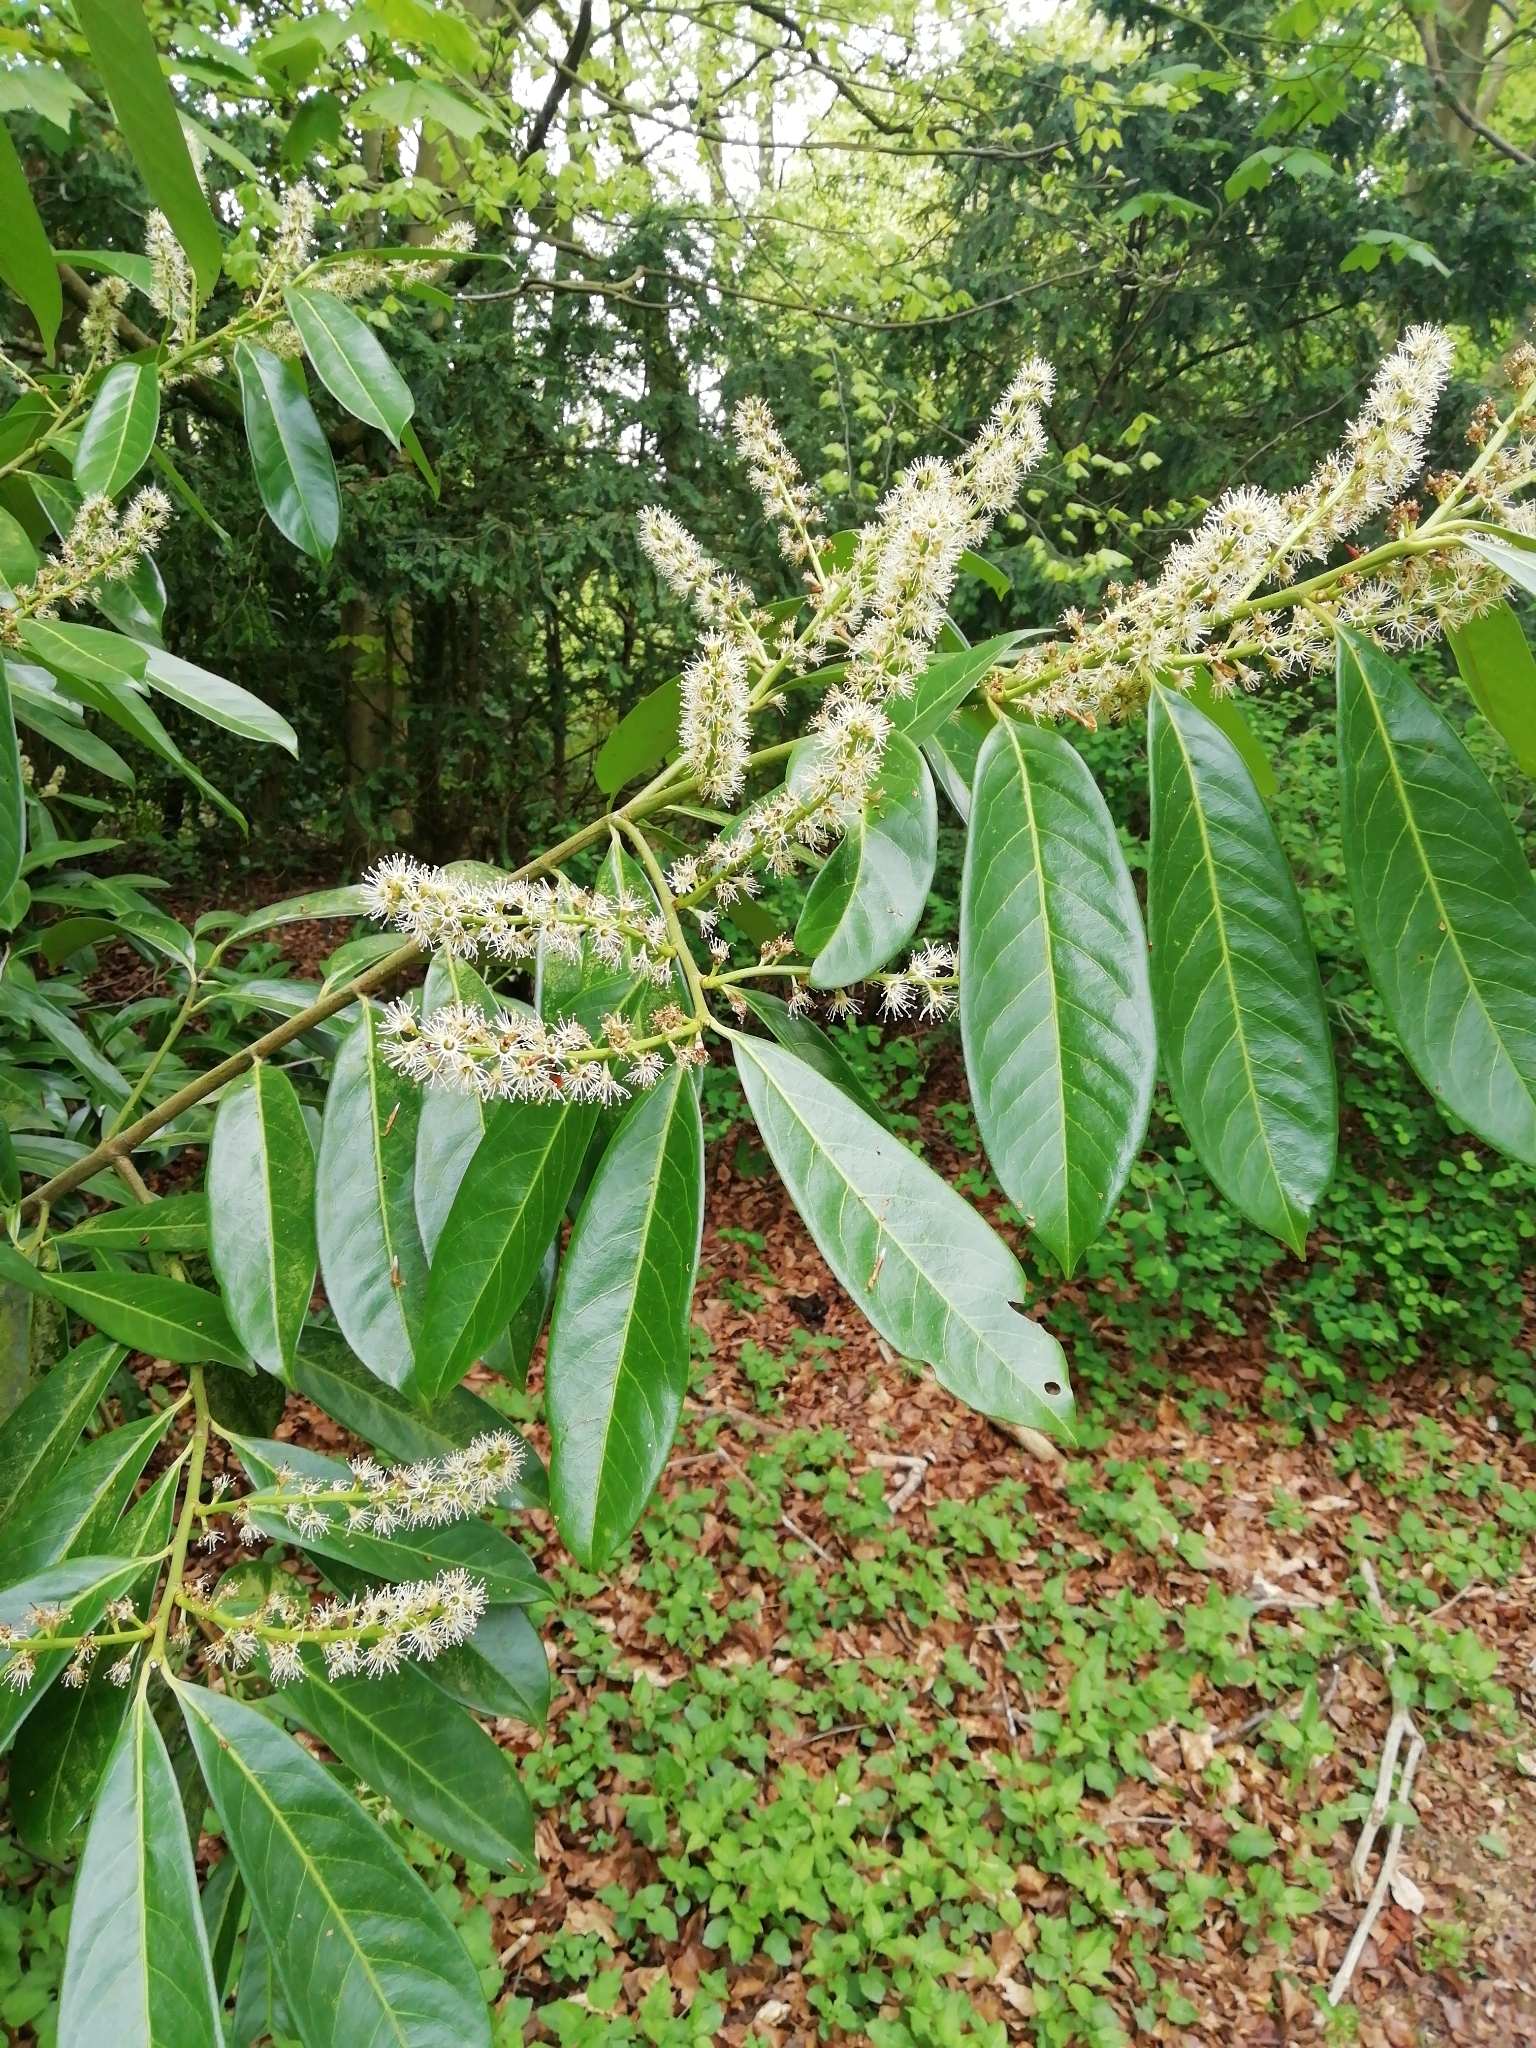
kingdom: Plantae
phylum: Tracheophyta
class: Magnoliopsida
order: Rosales
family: Rosaceae
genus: Prunus
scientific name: Prunus laurocerasus
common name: Cherry laurel
